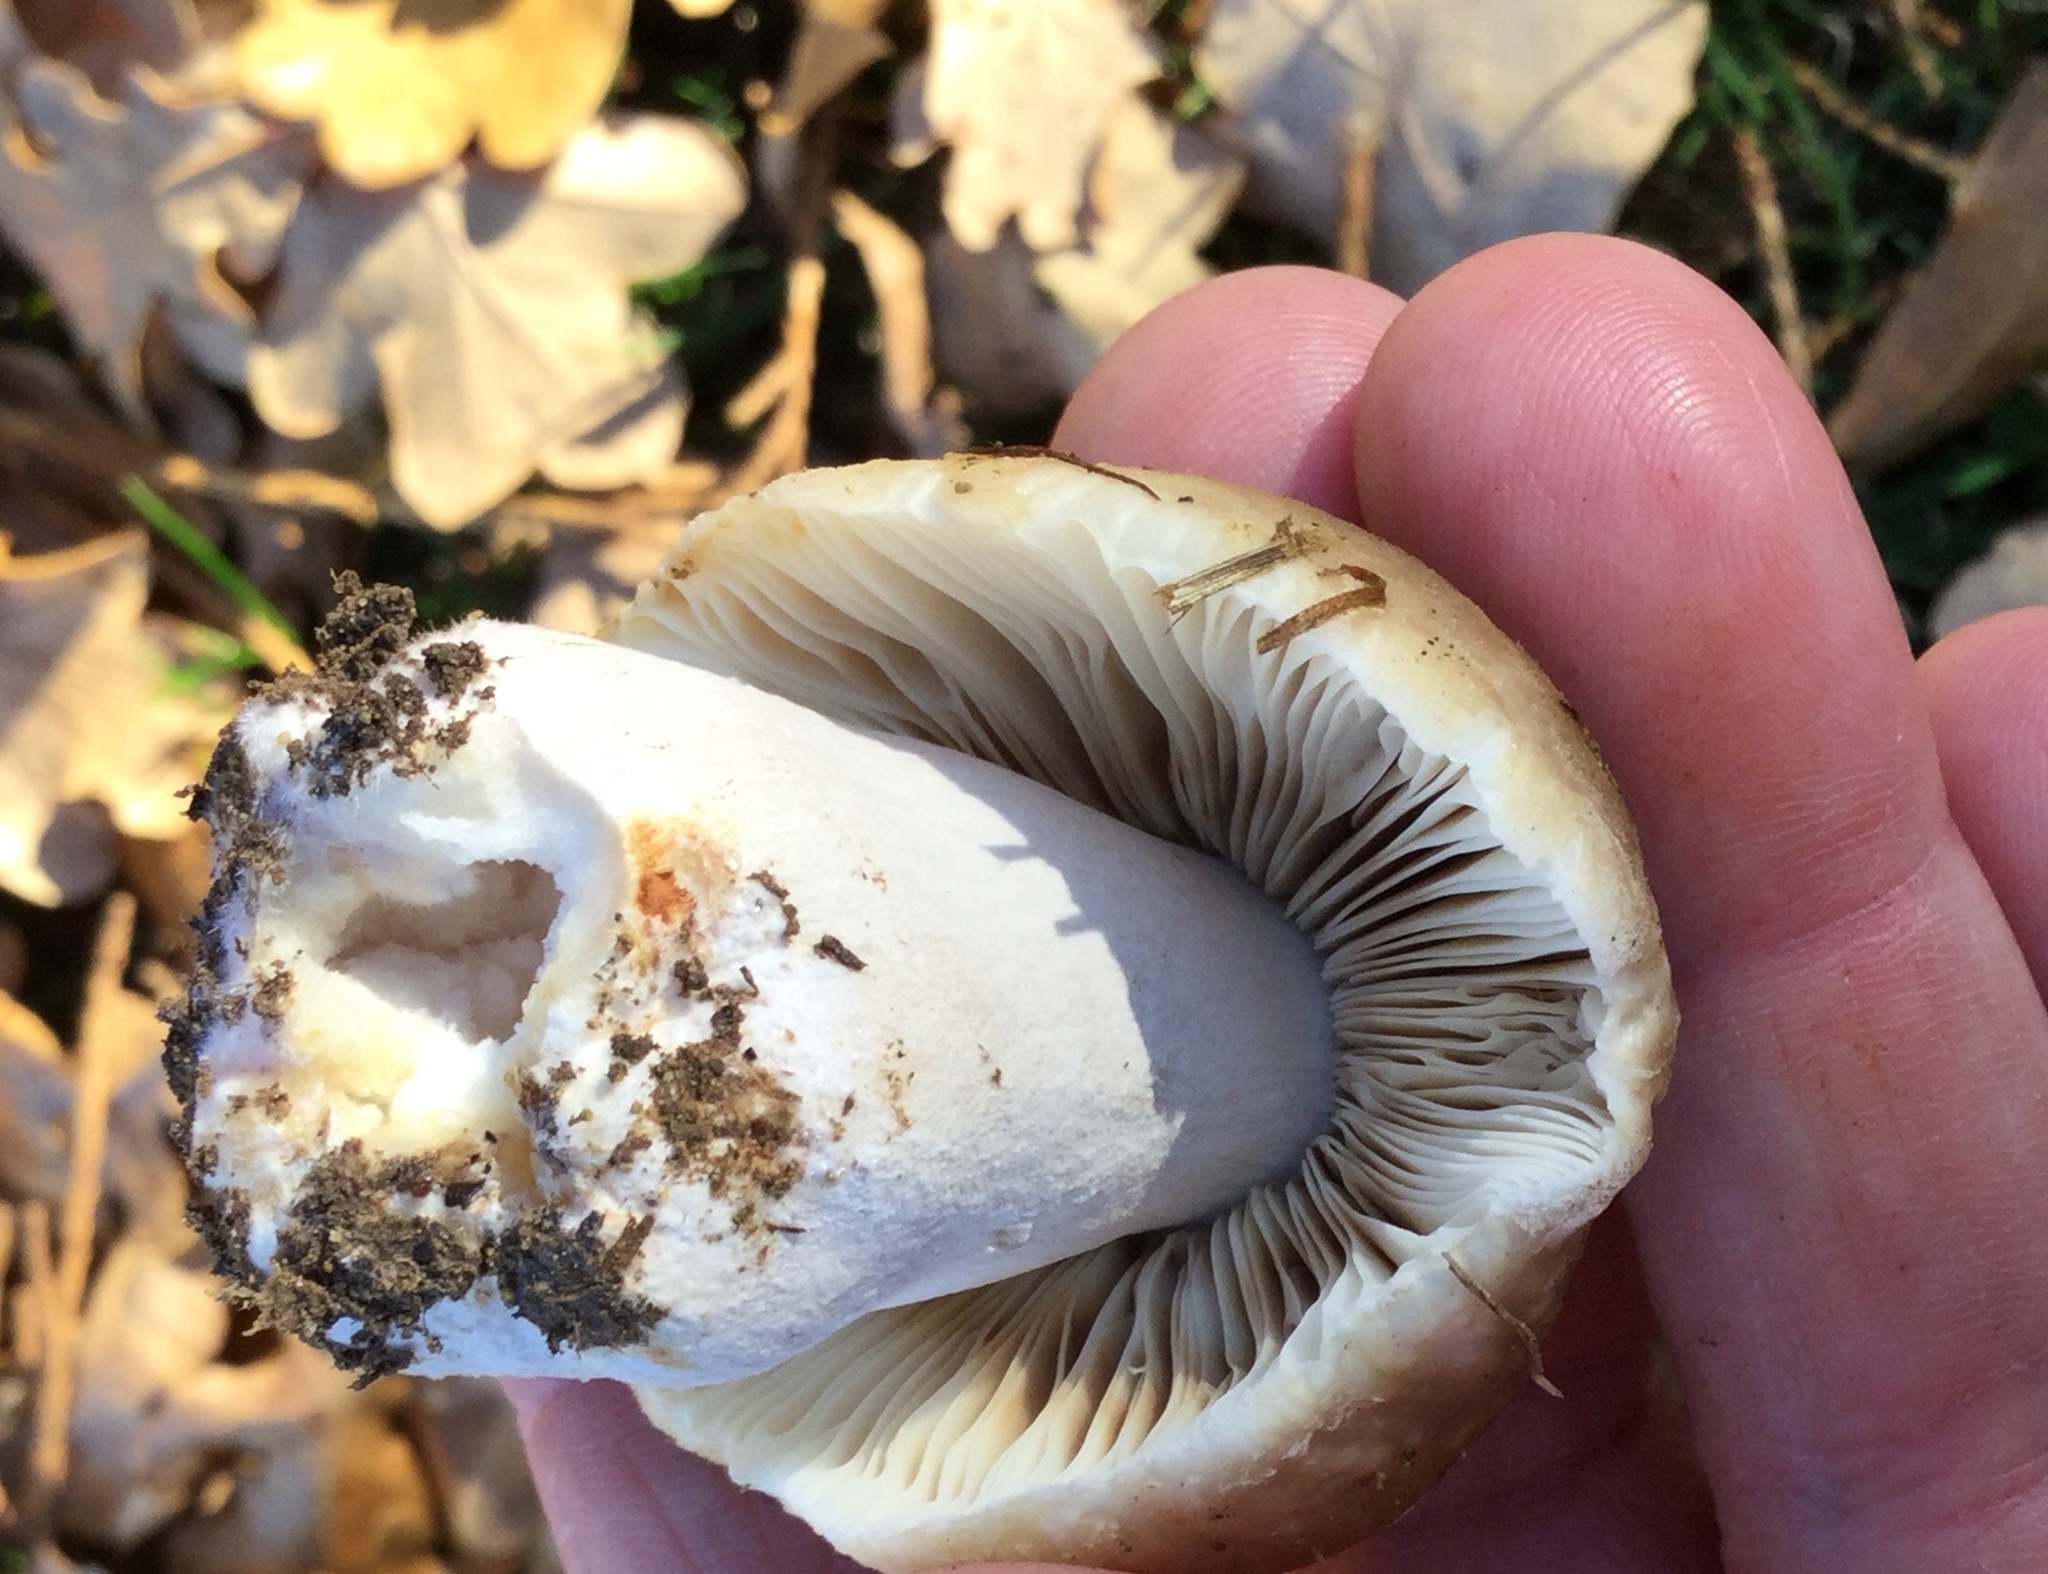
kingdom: Fungi
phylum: Basidiomycota
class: Agaricomycetes
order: Russulales
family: Russulaceae
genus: Russula
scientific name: Russula amoenolens
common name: Camembert brittlegill
